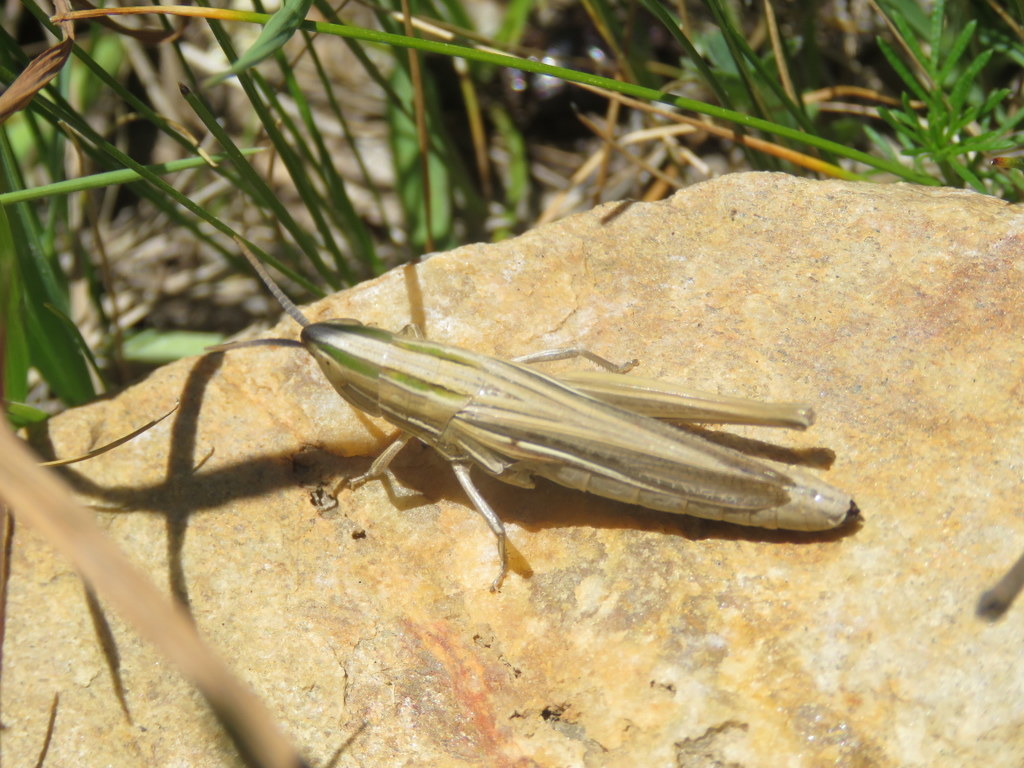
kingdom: Animalia
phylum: Arthropoda
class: Insecta
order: Orthoptera
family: Acrididae
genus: Sinipta
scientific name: Sinipta dalmani
